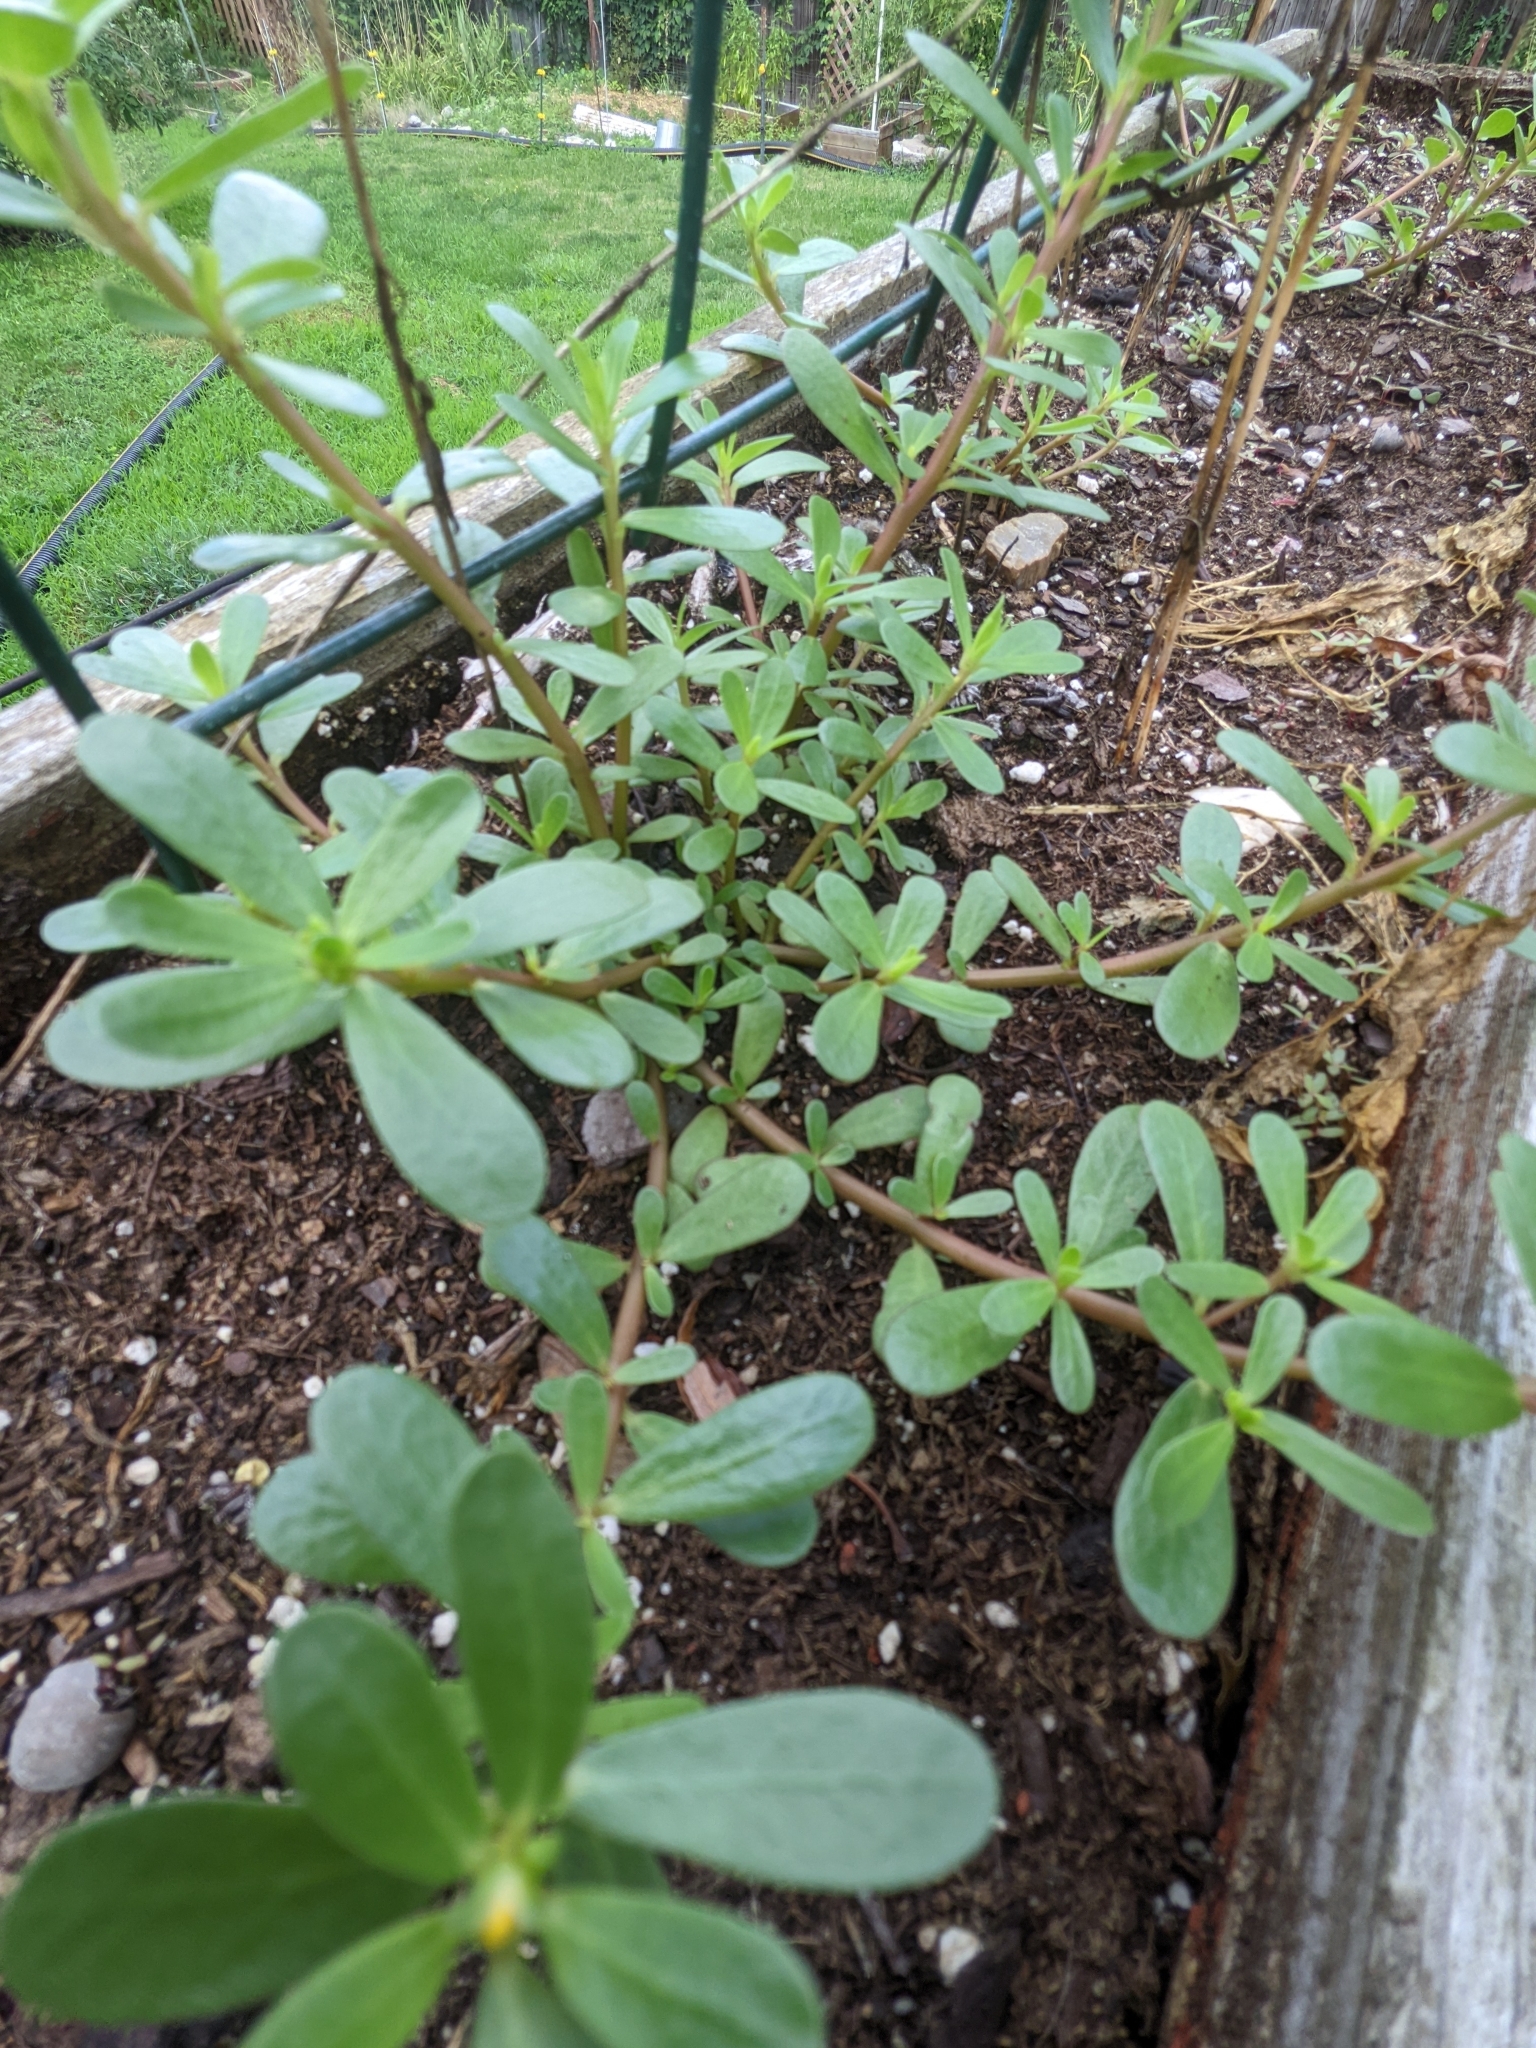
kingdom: Plantae
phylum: Tracheophyta
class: Magnoliopsida
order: Caryophyllales
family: Portulacaceae
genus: Portulaca
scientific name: Portulaca oleracea
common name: Common purslane
